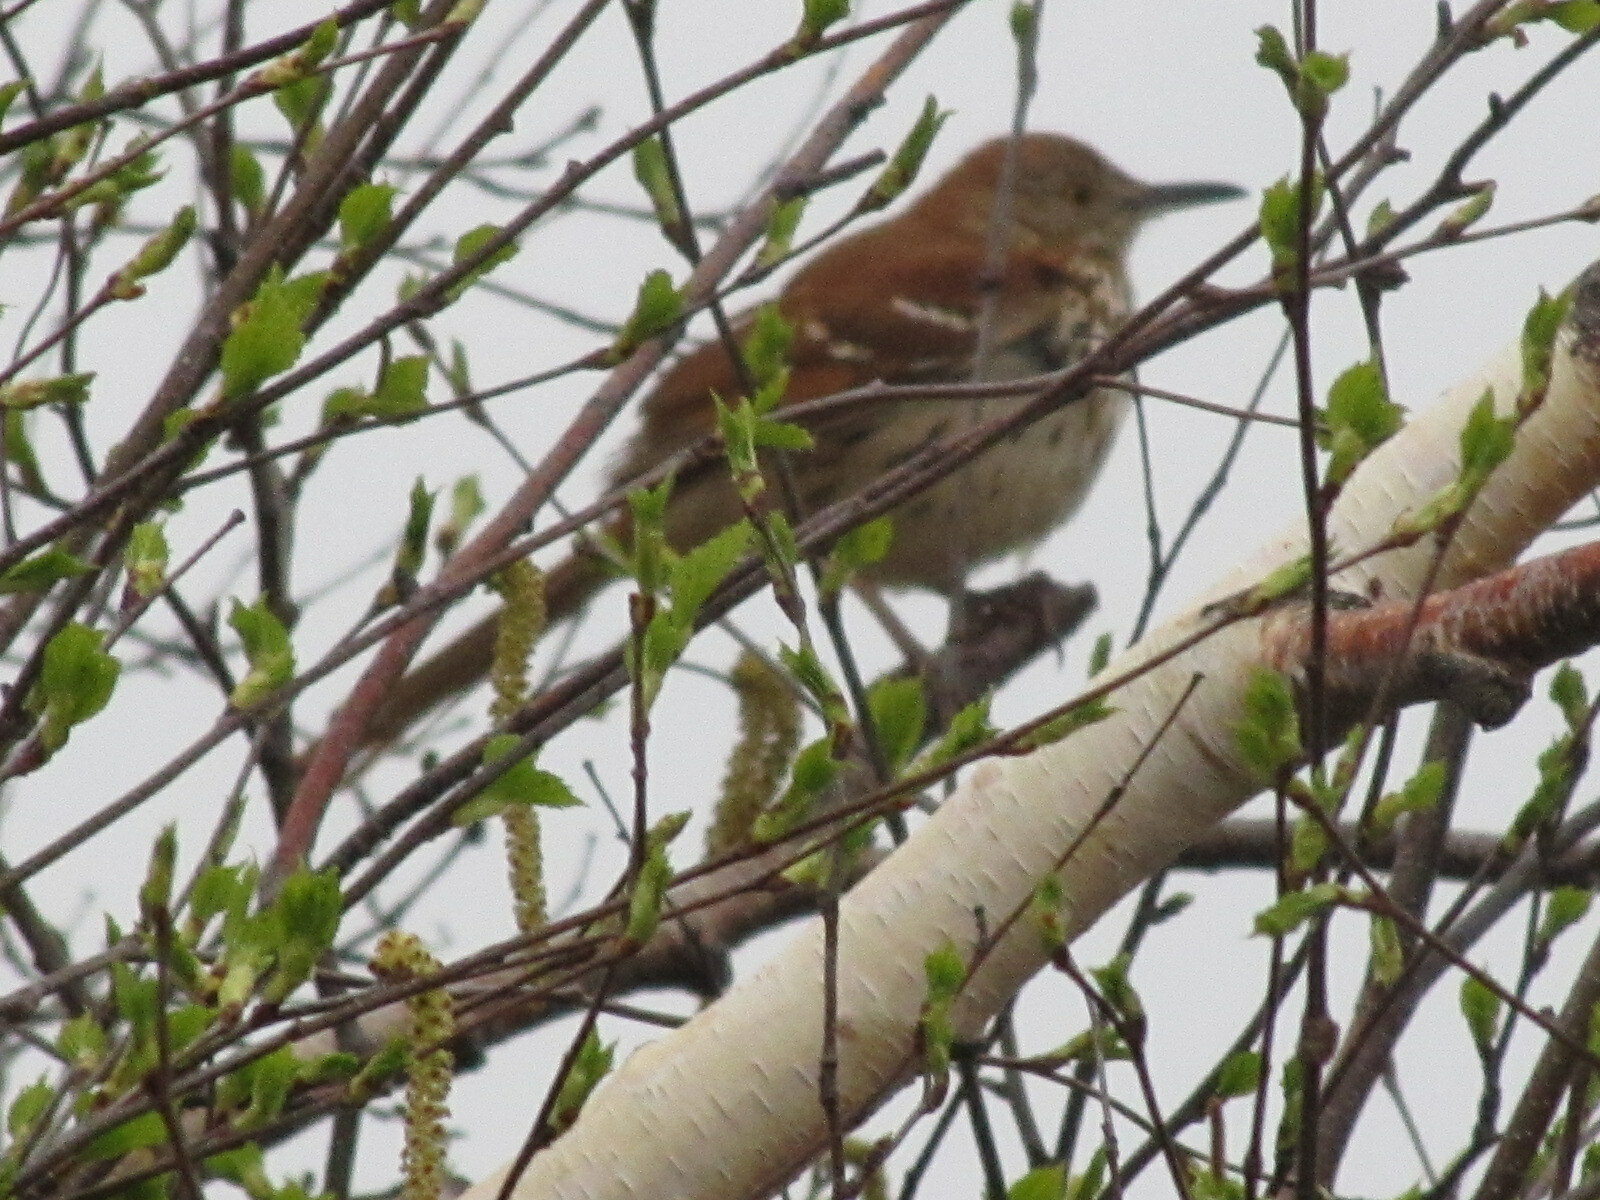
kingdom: Animalia
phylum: Chordata
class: Aves
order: Passeriformes
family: Mimidae
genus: Toxostoma
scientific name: Toxostoma rufum
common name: Brown thrasher
